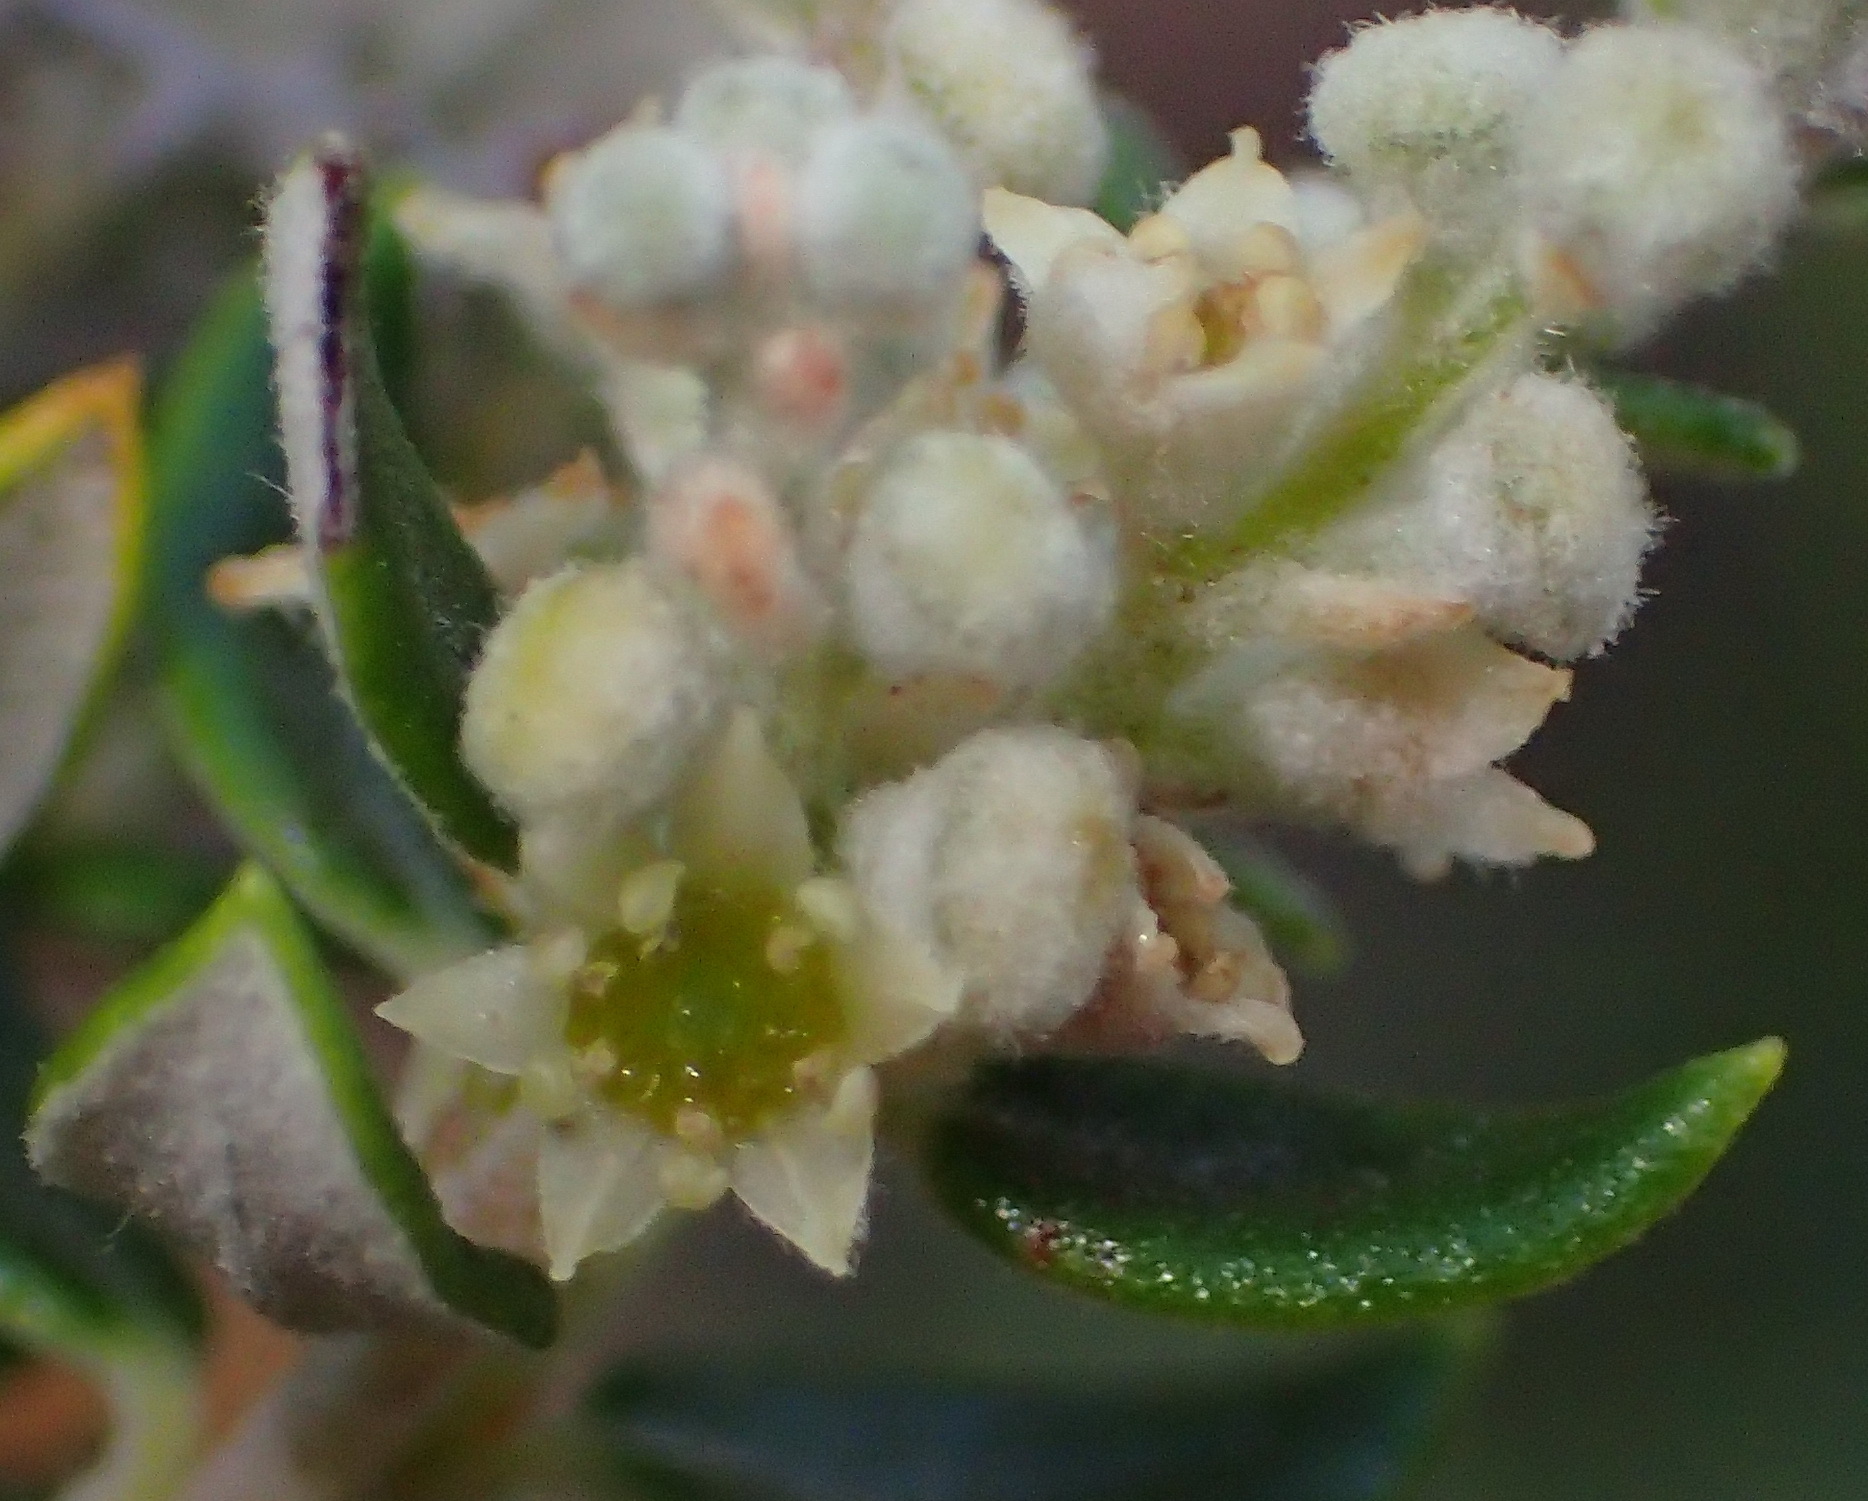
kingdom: Plantae
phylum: Tracheophyta
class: Magnoliopsida
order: Rosales
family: Rhamnaceae
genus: Phylica
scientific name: Phylica paniculata
